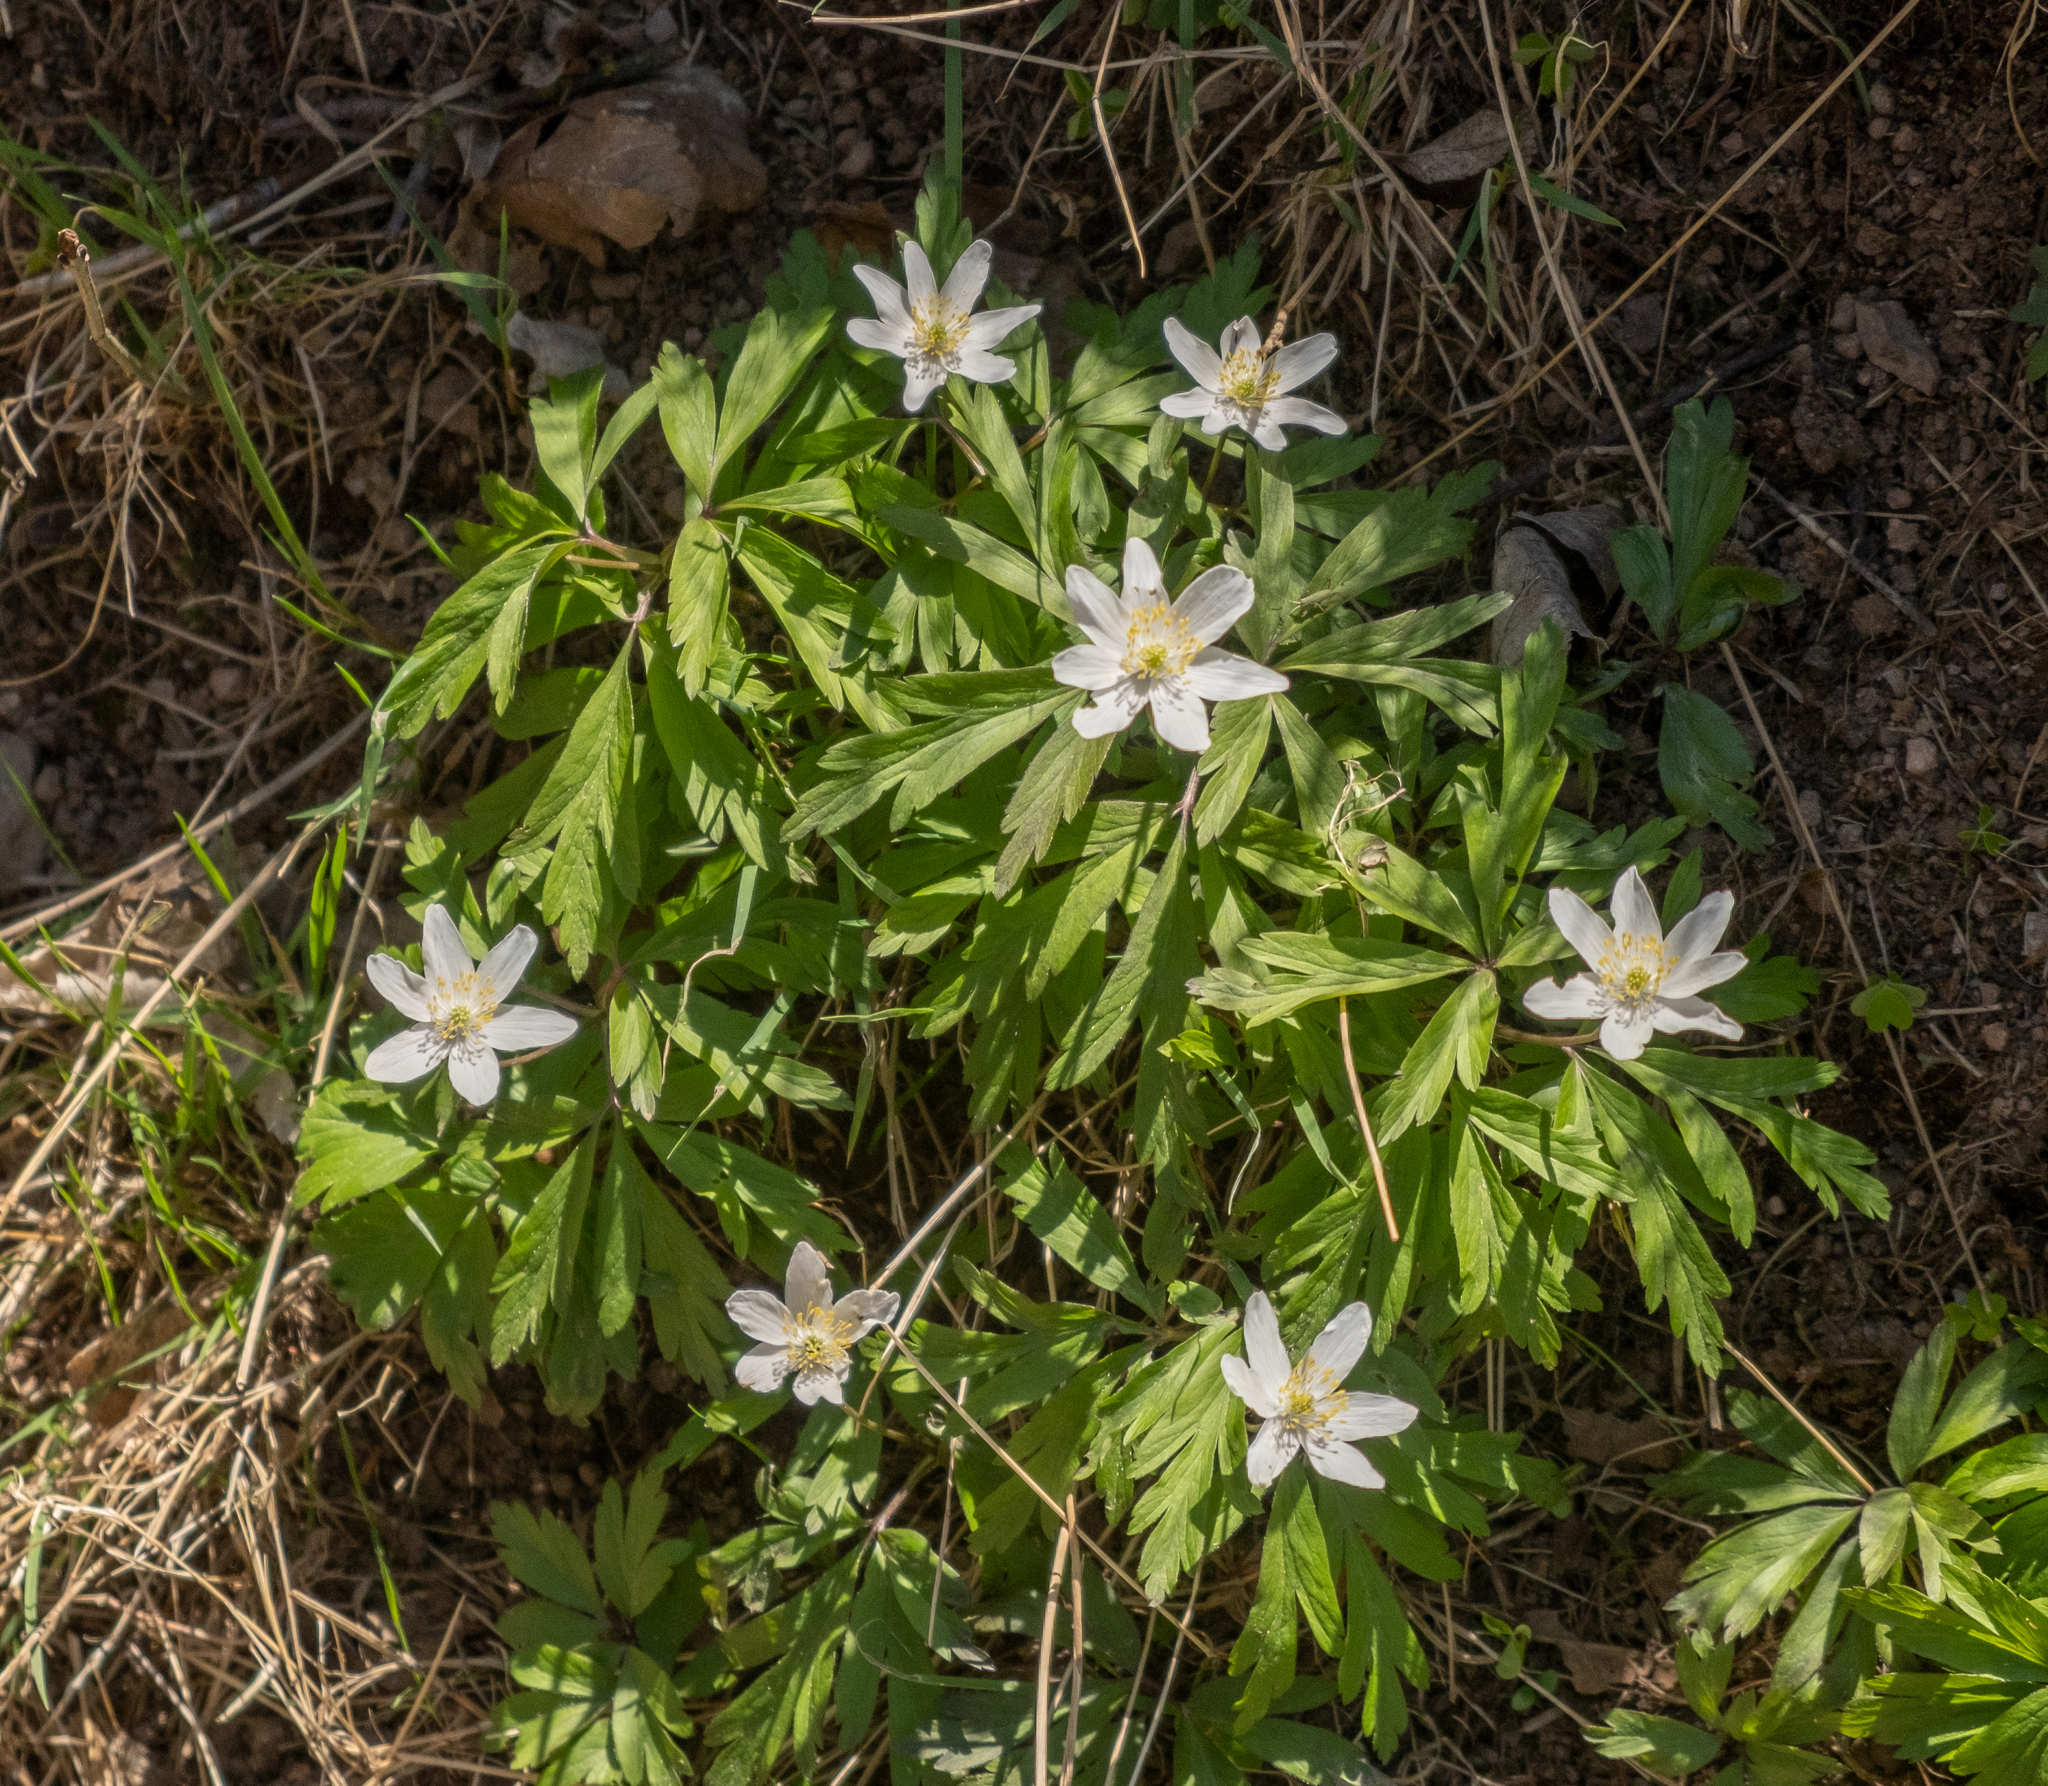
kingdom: Plantae
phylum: Tracheophyta
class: Magnoliopsida
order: Ranunculales
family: Ranunculaceae
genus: Anemone
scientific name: Anemone nemorosa
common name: Wood anemone
